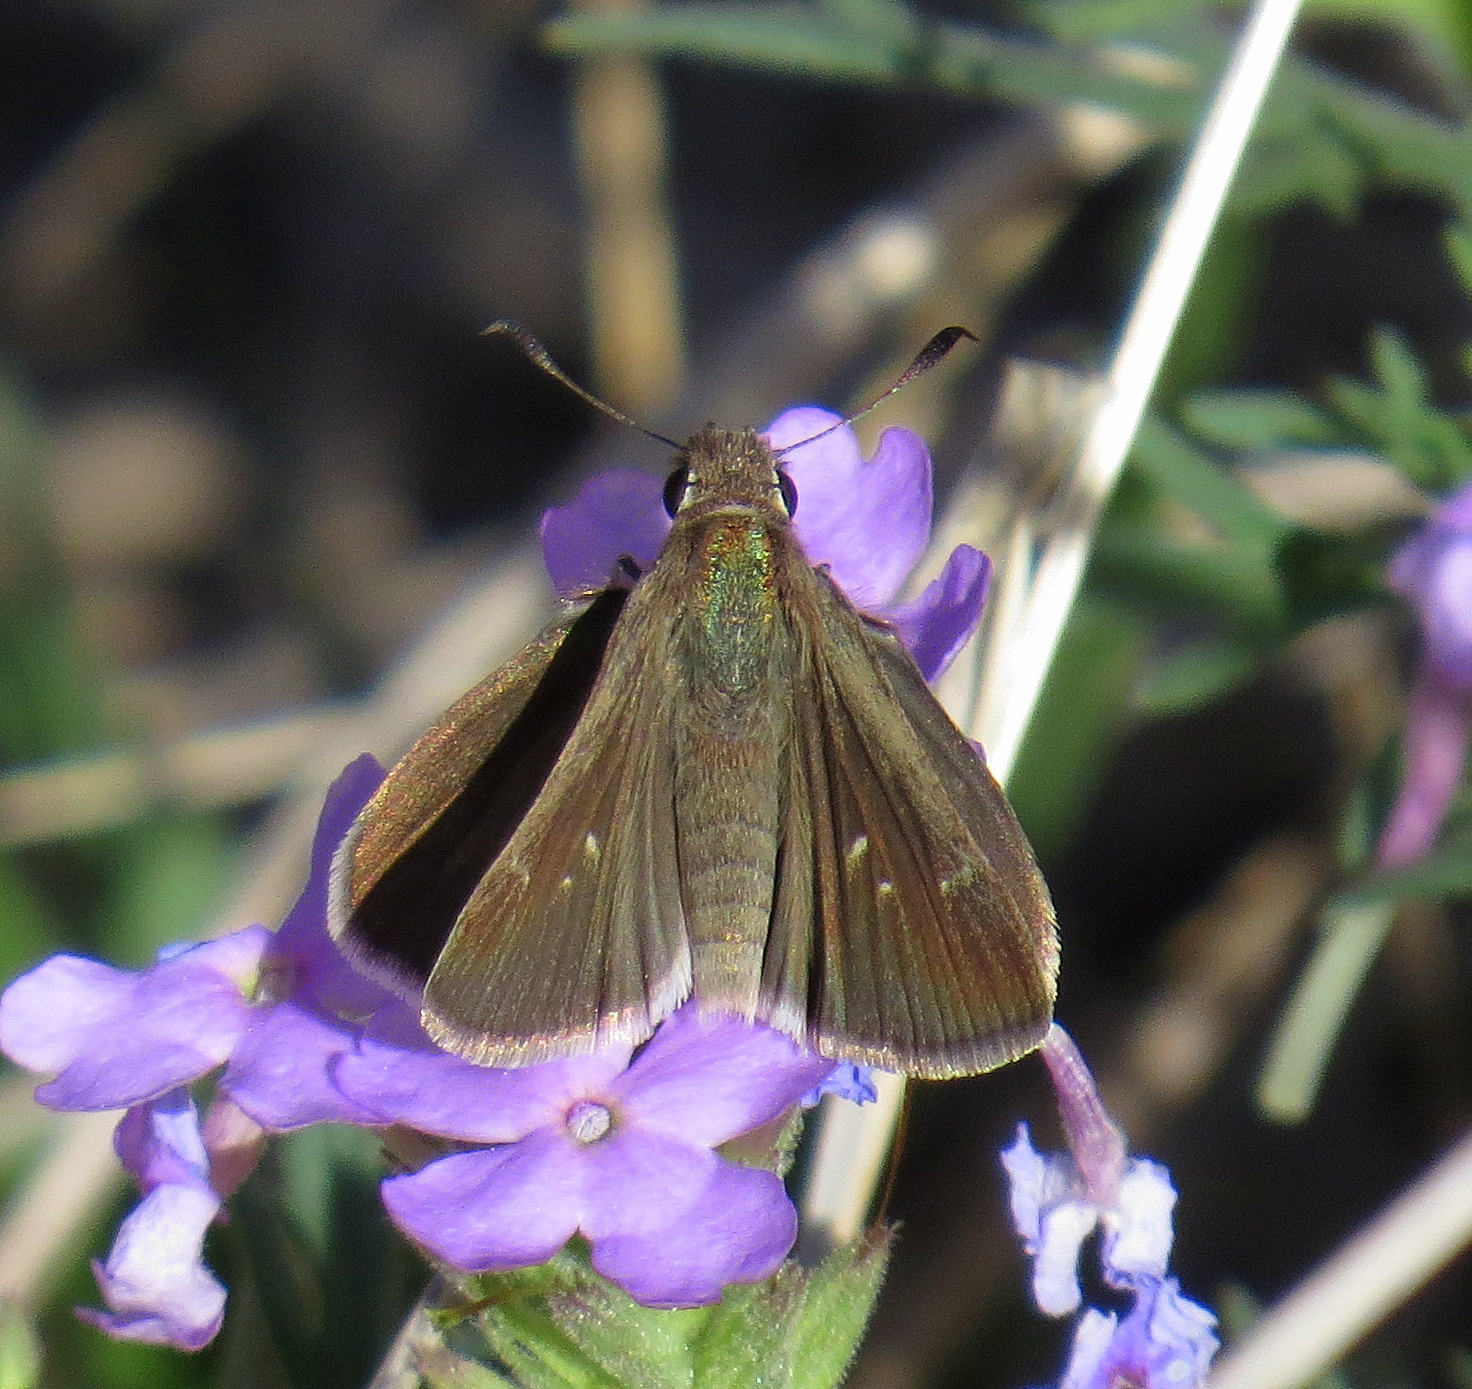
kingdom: Animalia
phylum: Arthropoda
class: Insecta
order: Lepidoptera
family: Hesperiidae
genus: Lerodea
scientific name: Lerodea eufala
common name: Eufala skipper
